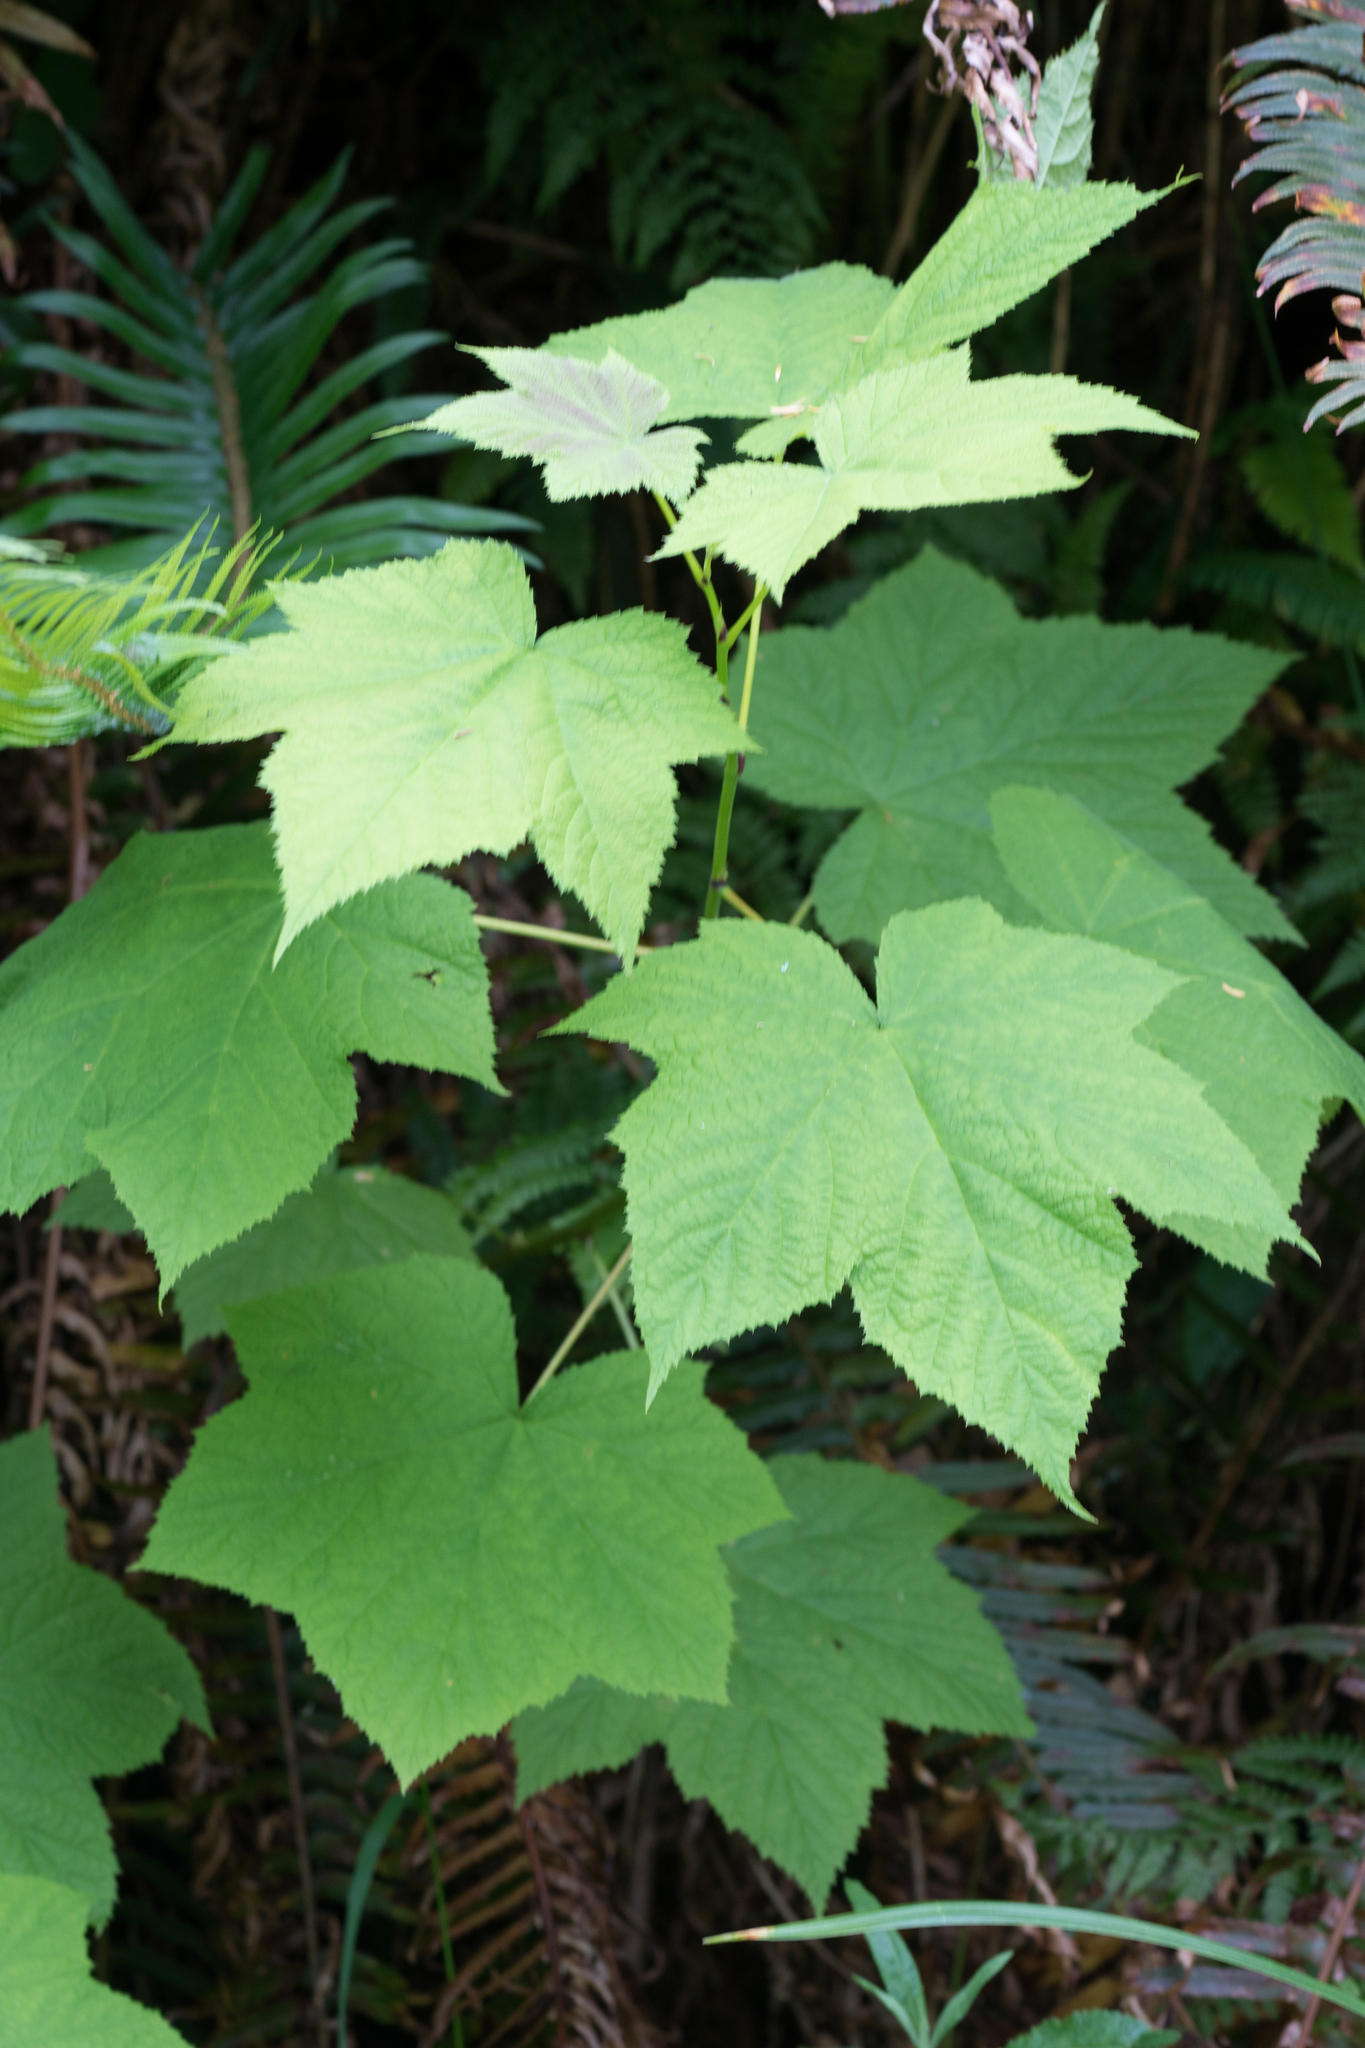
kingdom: Plantae
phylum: Tracheophyta
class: Magnoliopsida
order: Rosales
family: Rosaceae
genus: Rubus
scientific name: Rubus parviflorus
